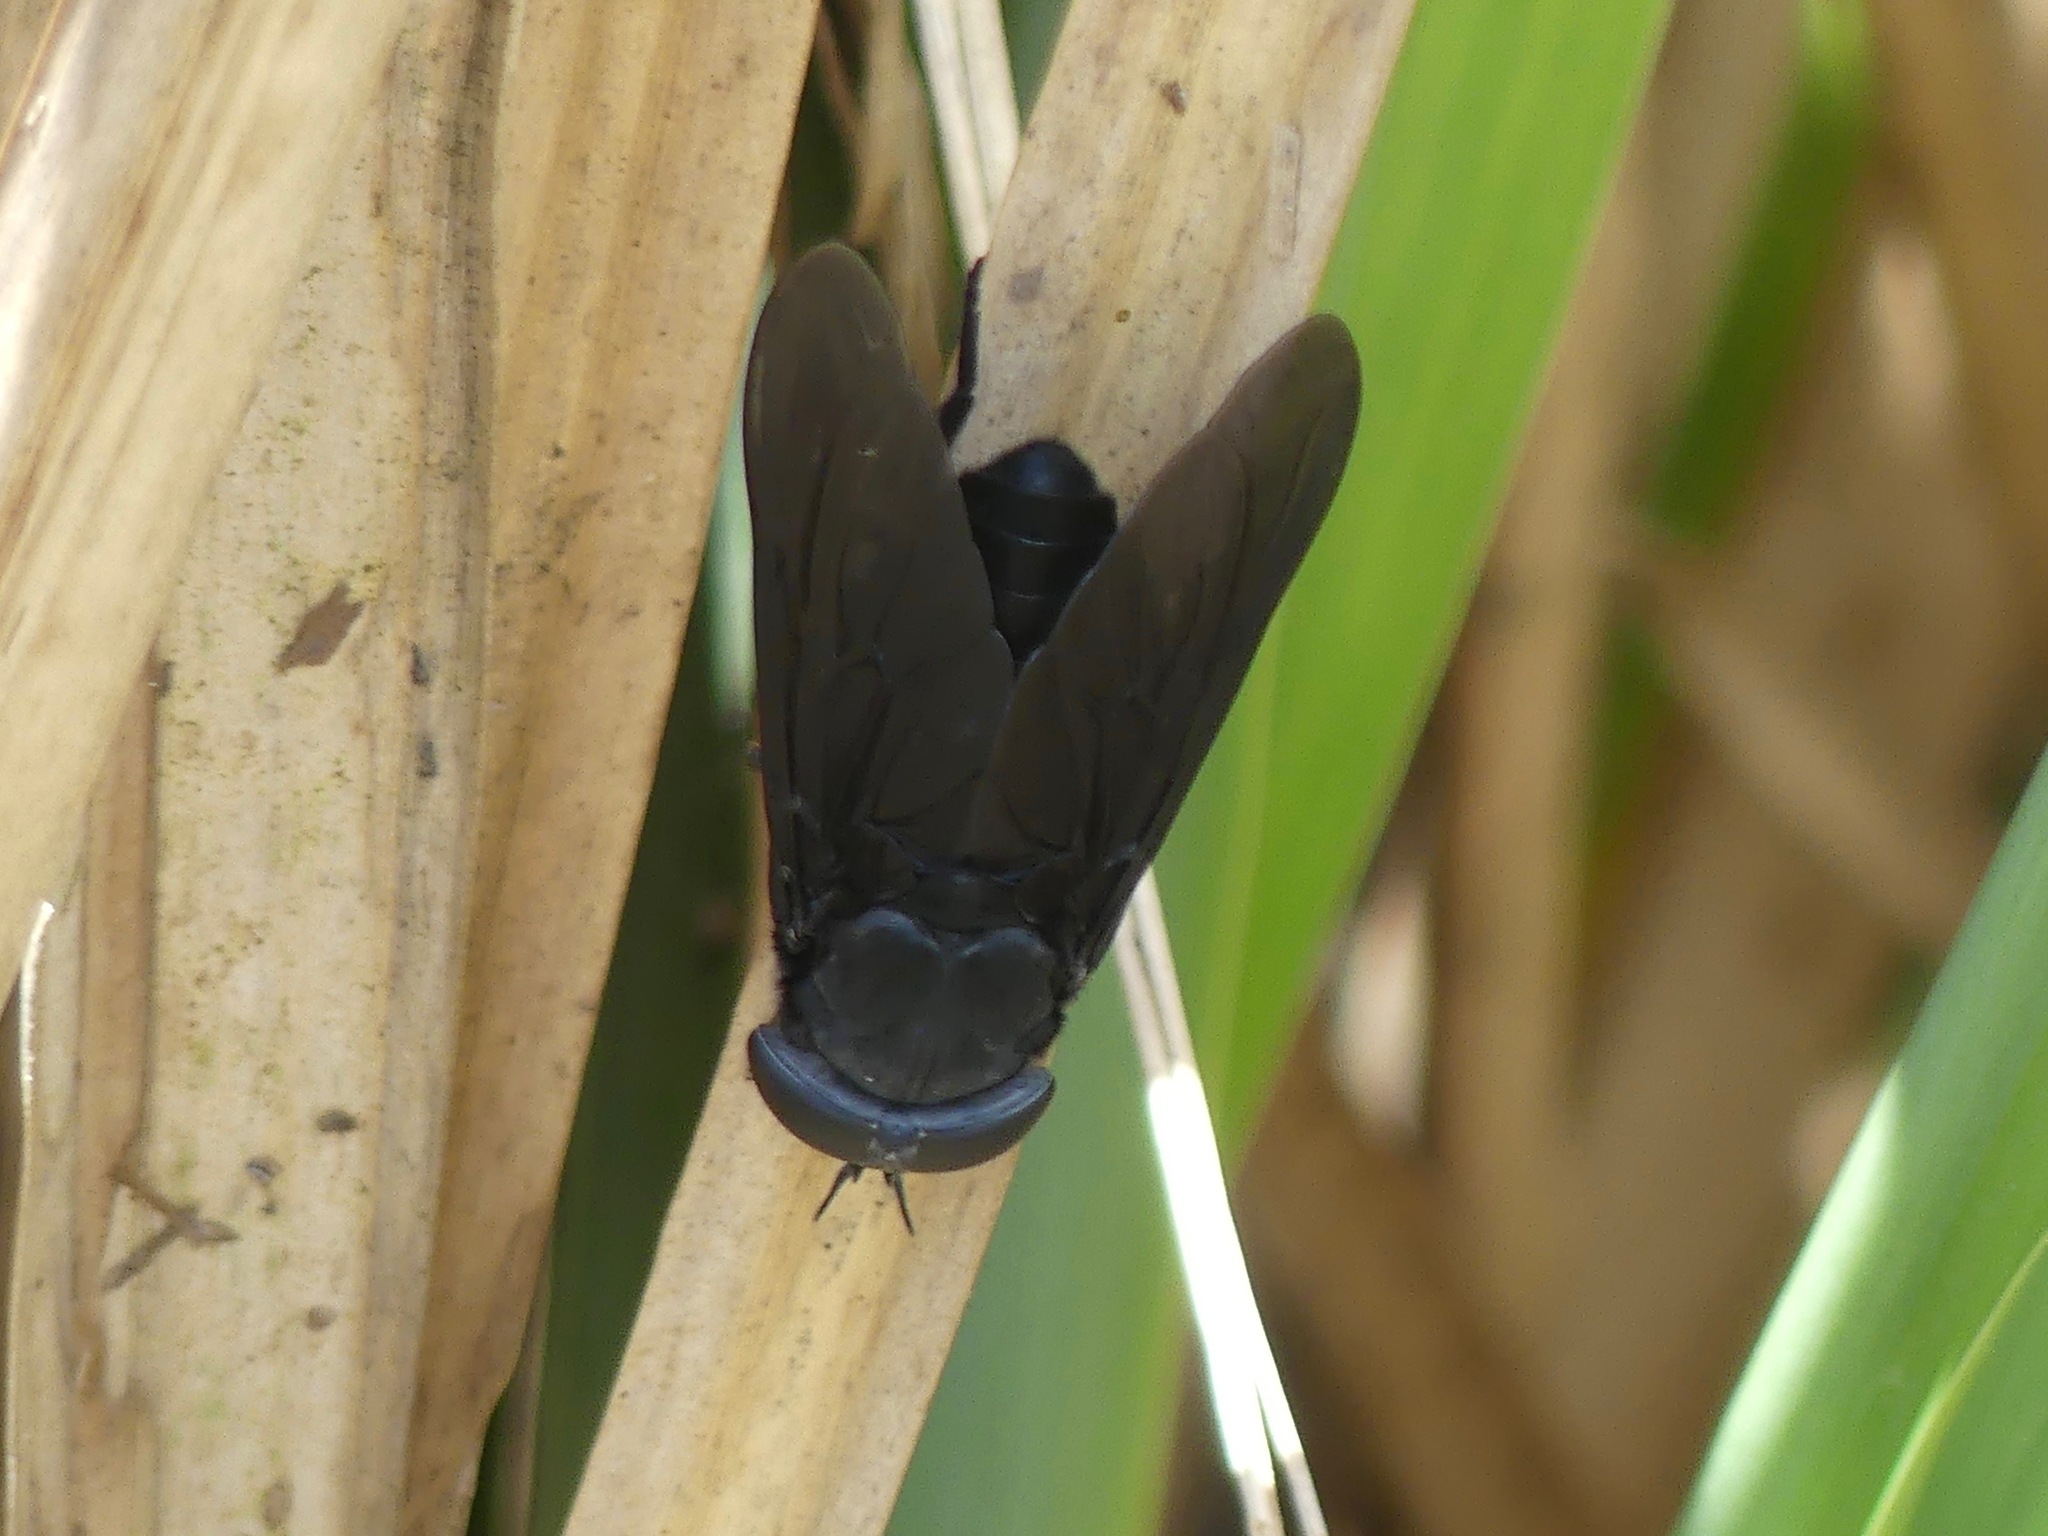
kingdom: Animalia
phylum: Arthropoda
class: Insecta
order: Diptera
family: Tabanidae
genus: Tabanus
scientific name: Tabanus atratus
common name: Black horse fly
